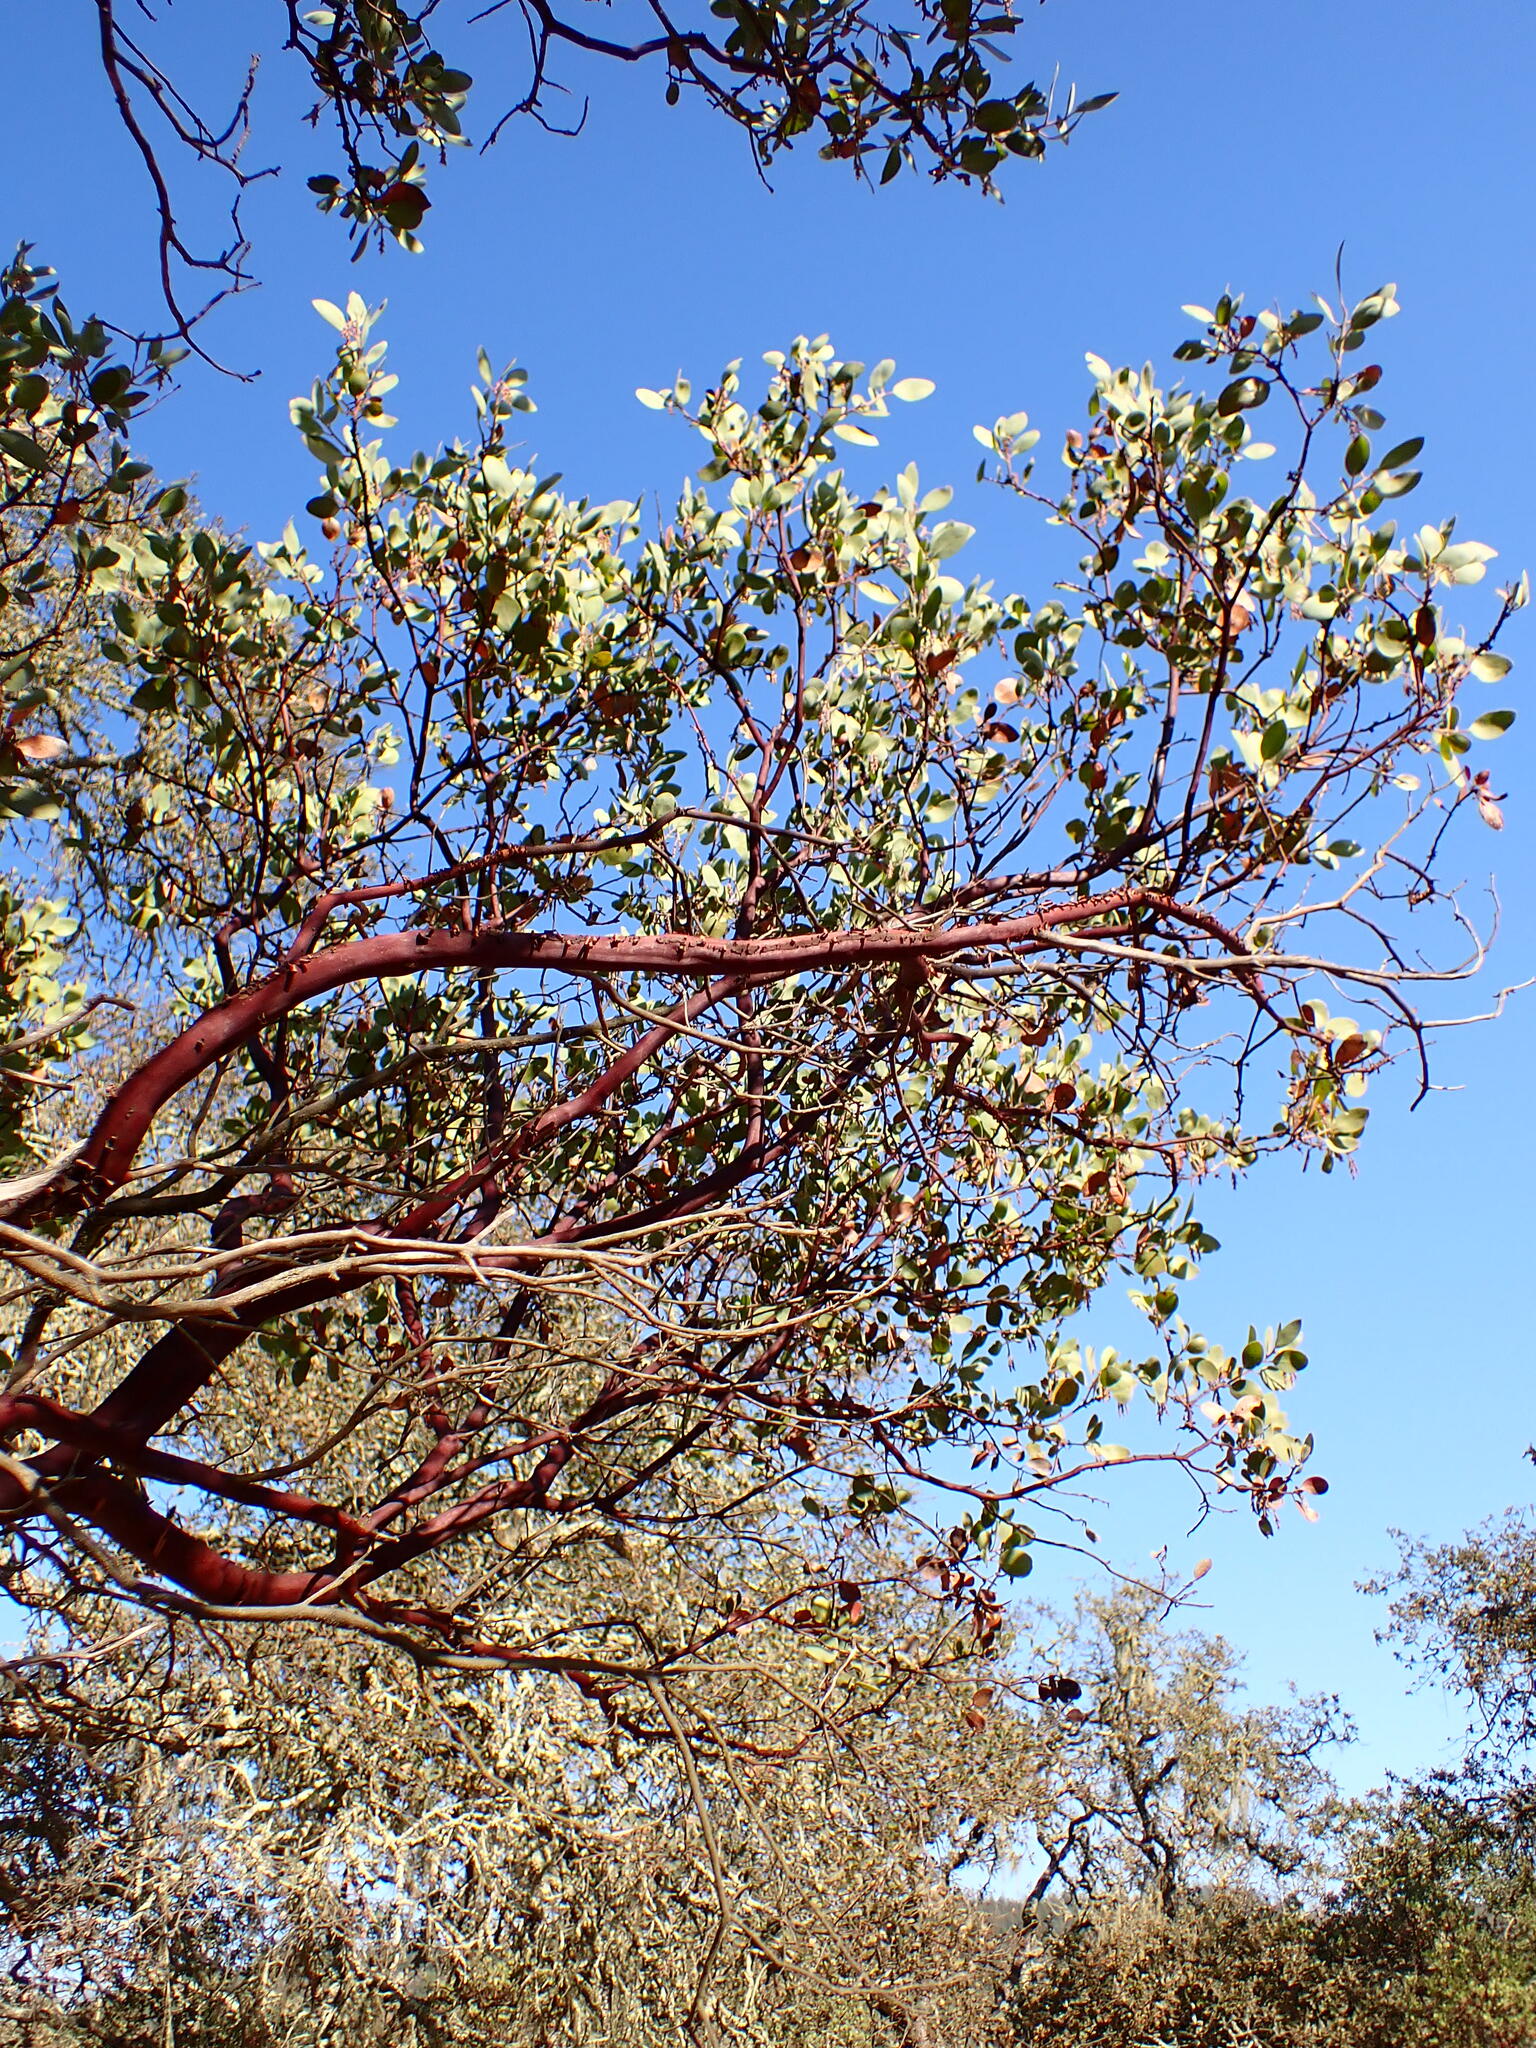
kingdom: Plantae
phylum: Tracheophyta
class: Magnoliopsida
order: Ericales
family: Ericaceae
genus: Arctostaphylos
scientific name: Arctostaphylos manzanita
